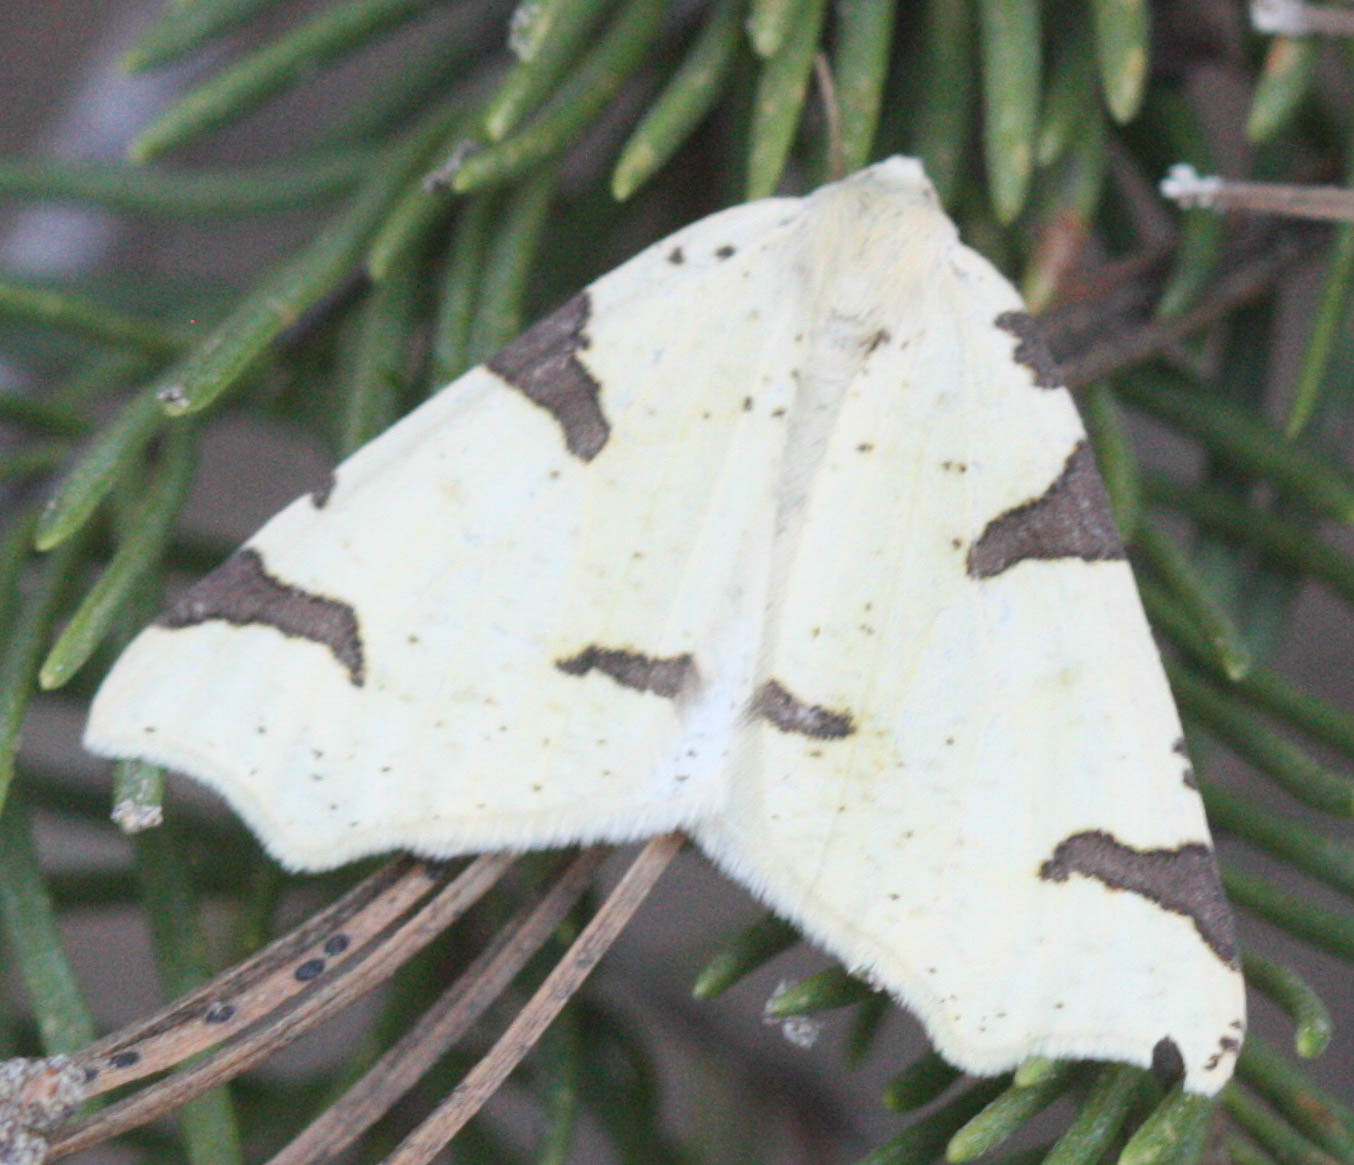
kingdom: Animalia
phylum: Arthropoda
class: Insecta
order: Lepidoptera
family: Geometridae
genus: Neoterpes
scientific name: Neoterpes trianguliferata
